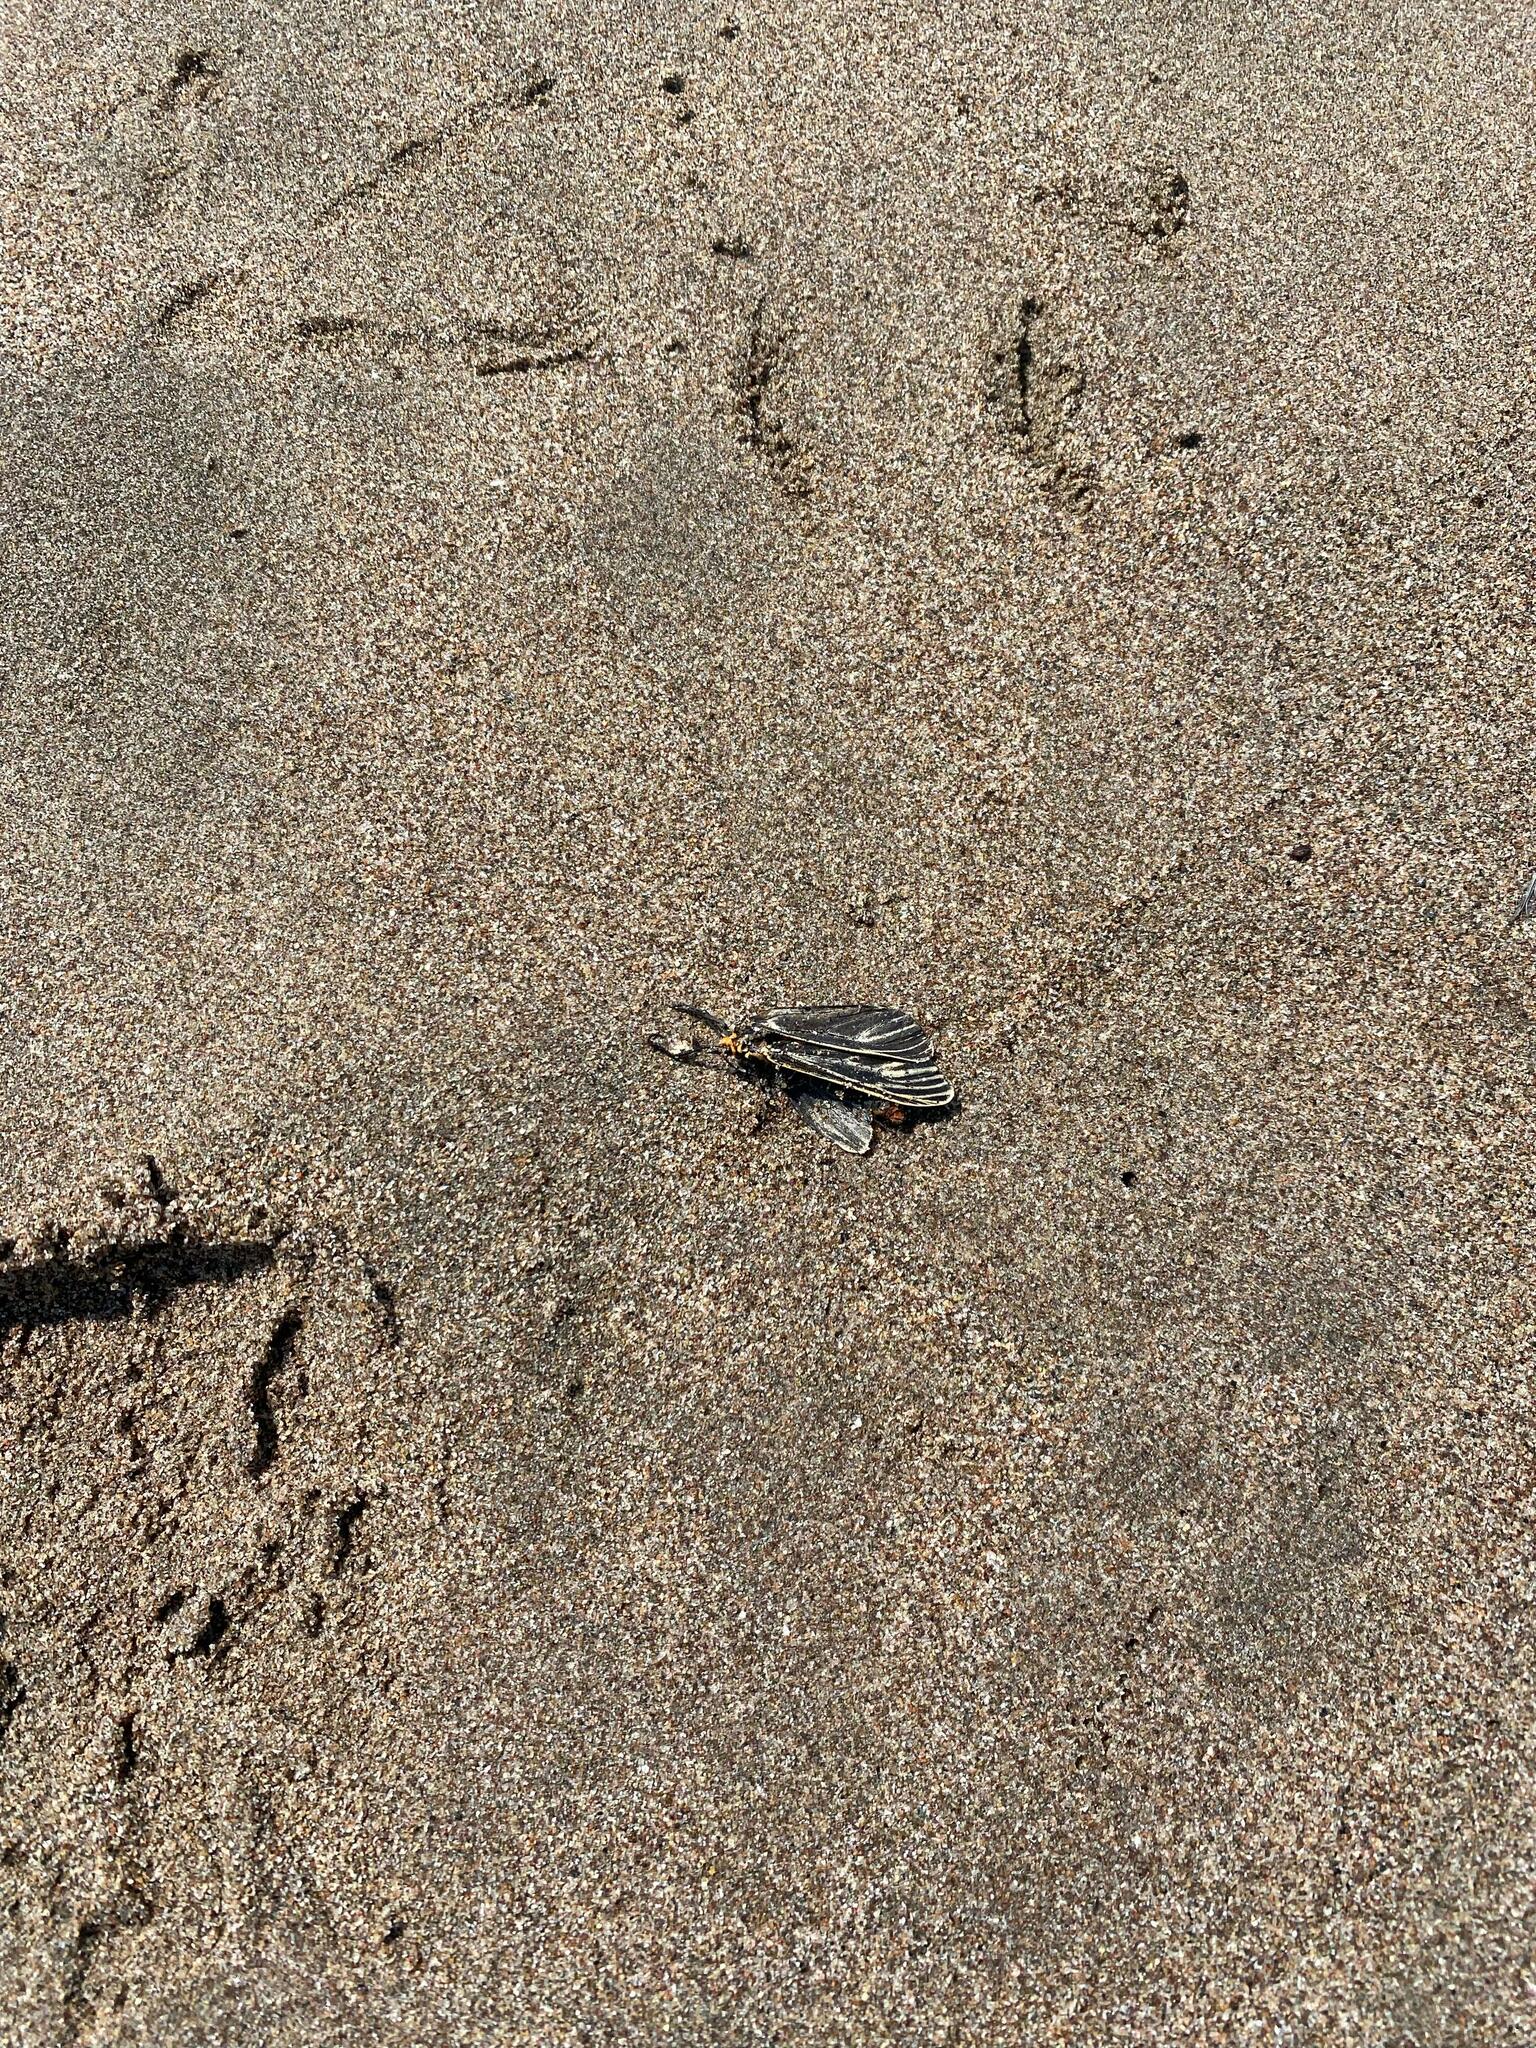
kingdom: Animalia
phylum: Arthropoda
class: Insecta
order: Lepidoptera
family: Erebidae
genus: Ctenucha
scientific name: Ctenucha vittigerum
